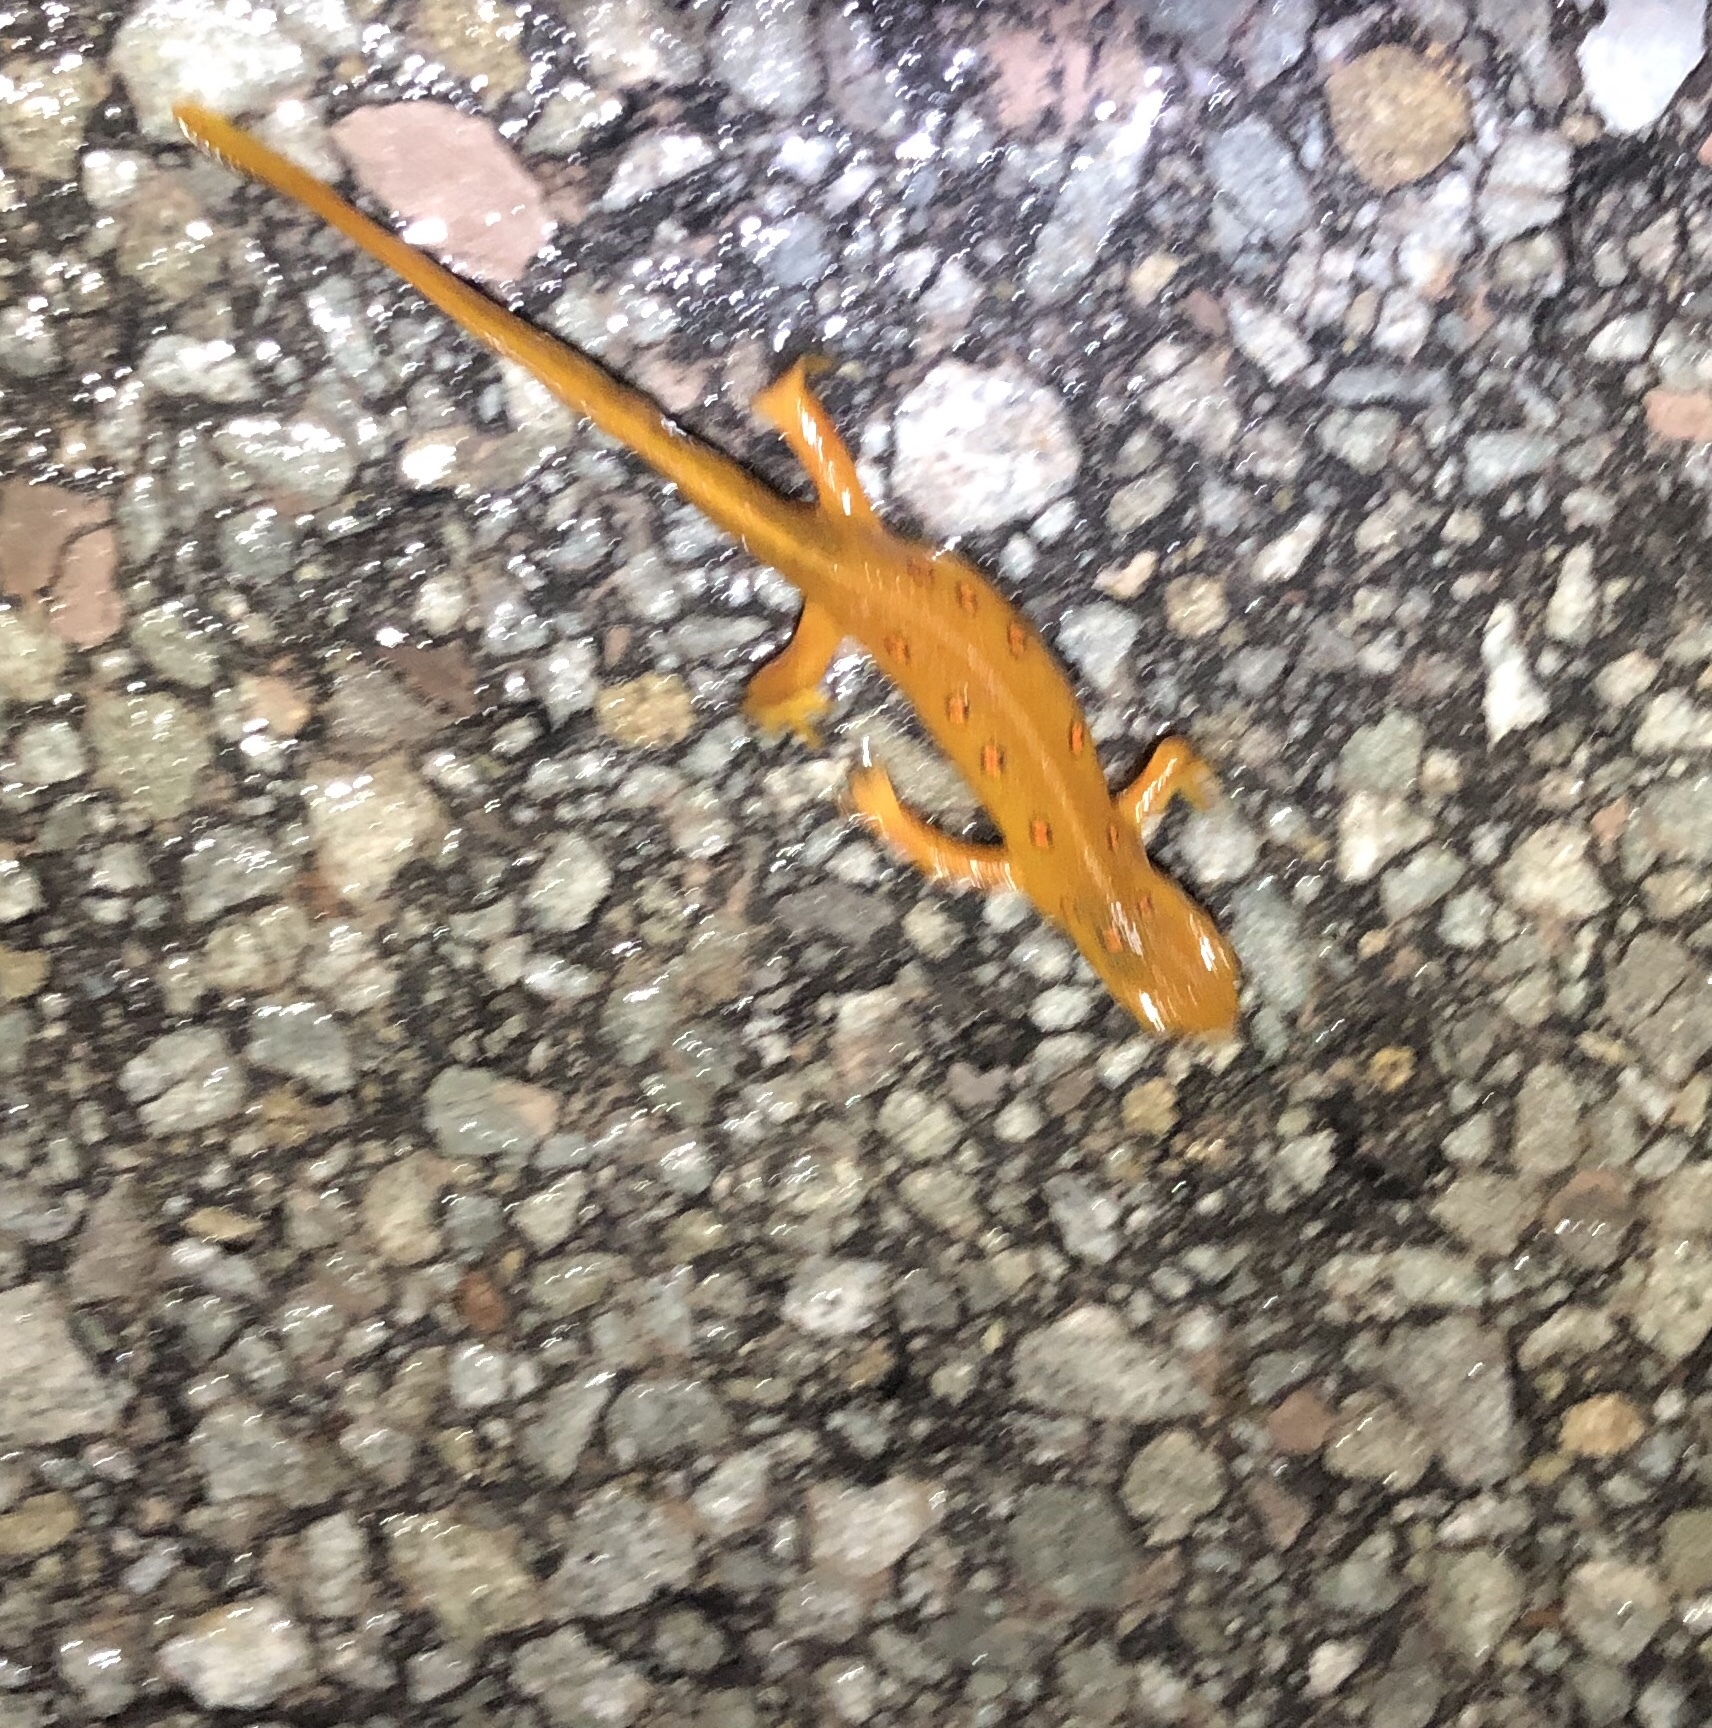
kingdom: Animalia
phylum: Chordata
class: Amphibia
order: Caudata
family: Salamandridae
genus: Notophthalmus
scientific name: Notophthalmus viridescens
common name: Eastern newt
